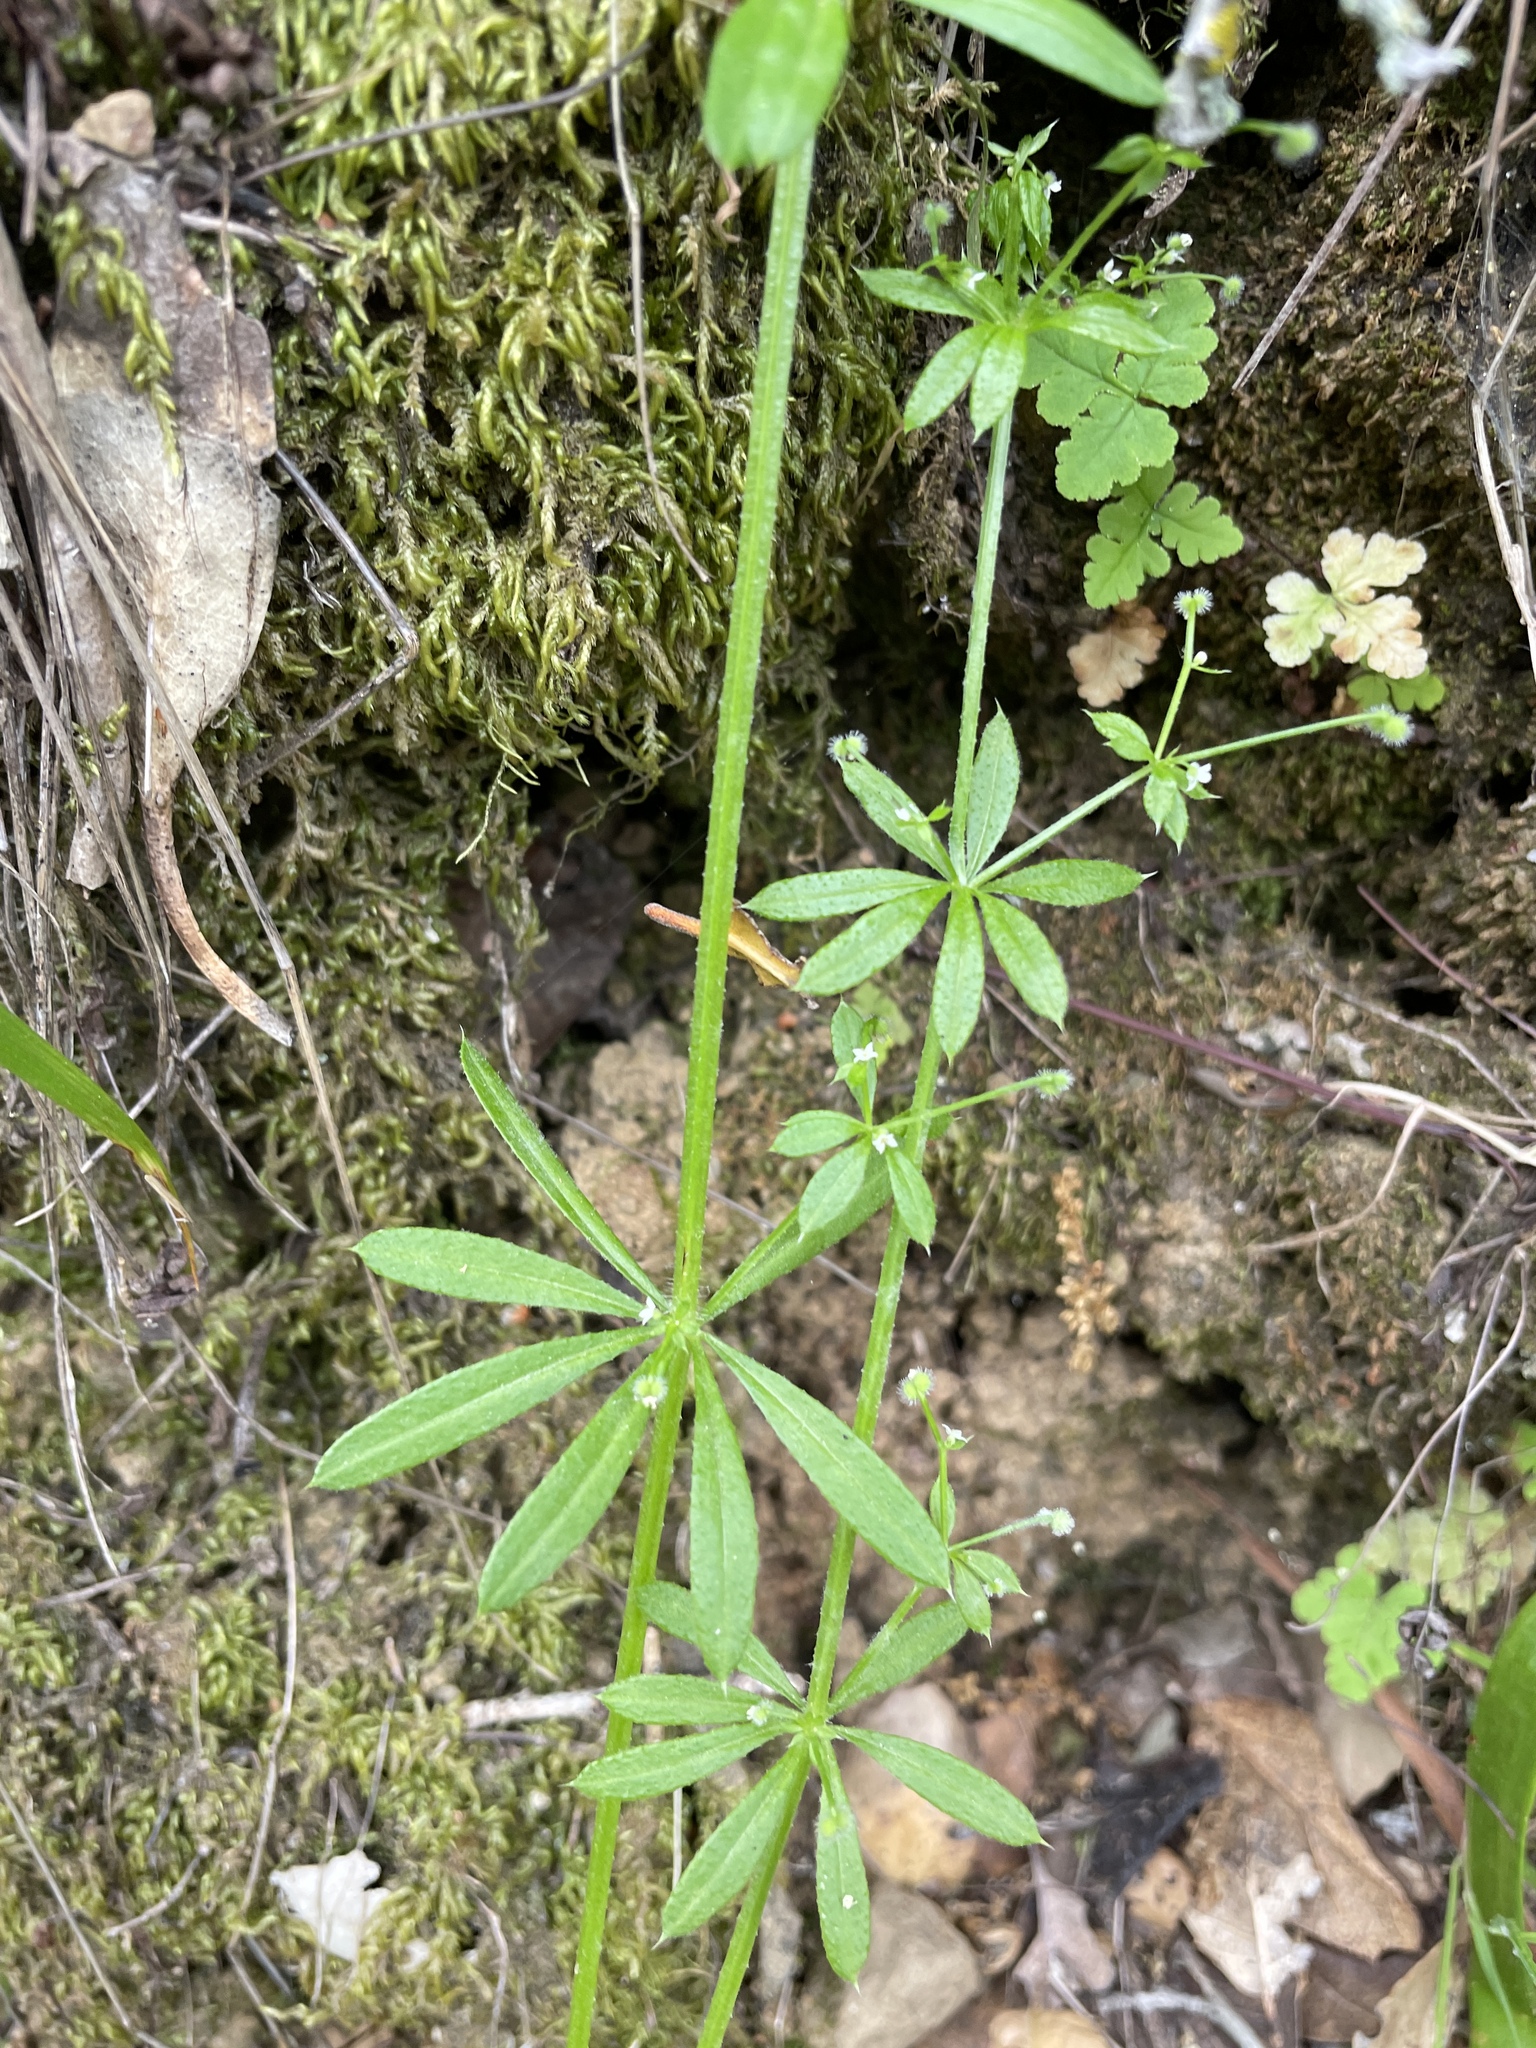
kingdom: Plantae
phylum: Tracheophyta
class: Magnoliopsida
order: Gentianales
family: Rubiaceae
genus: Galium
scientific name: Galium aparine
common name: Cleavers
